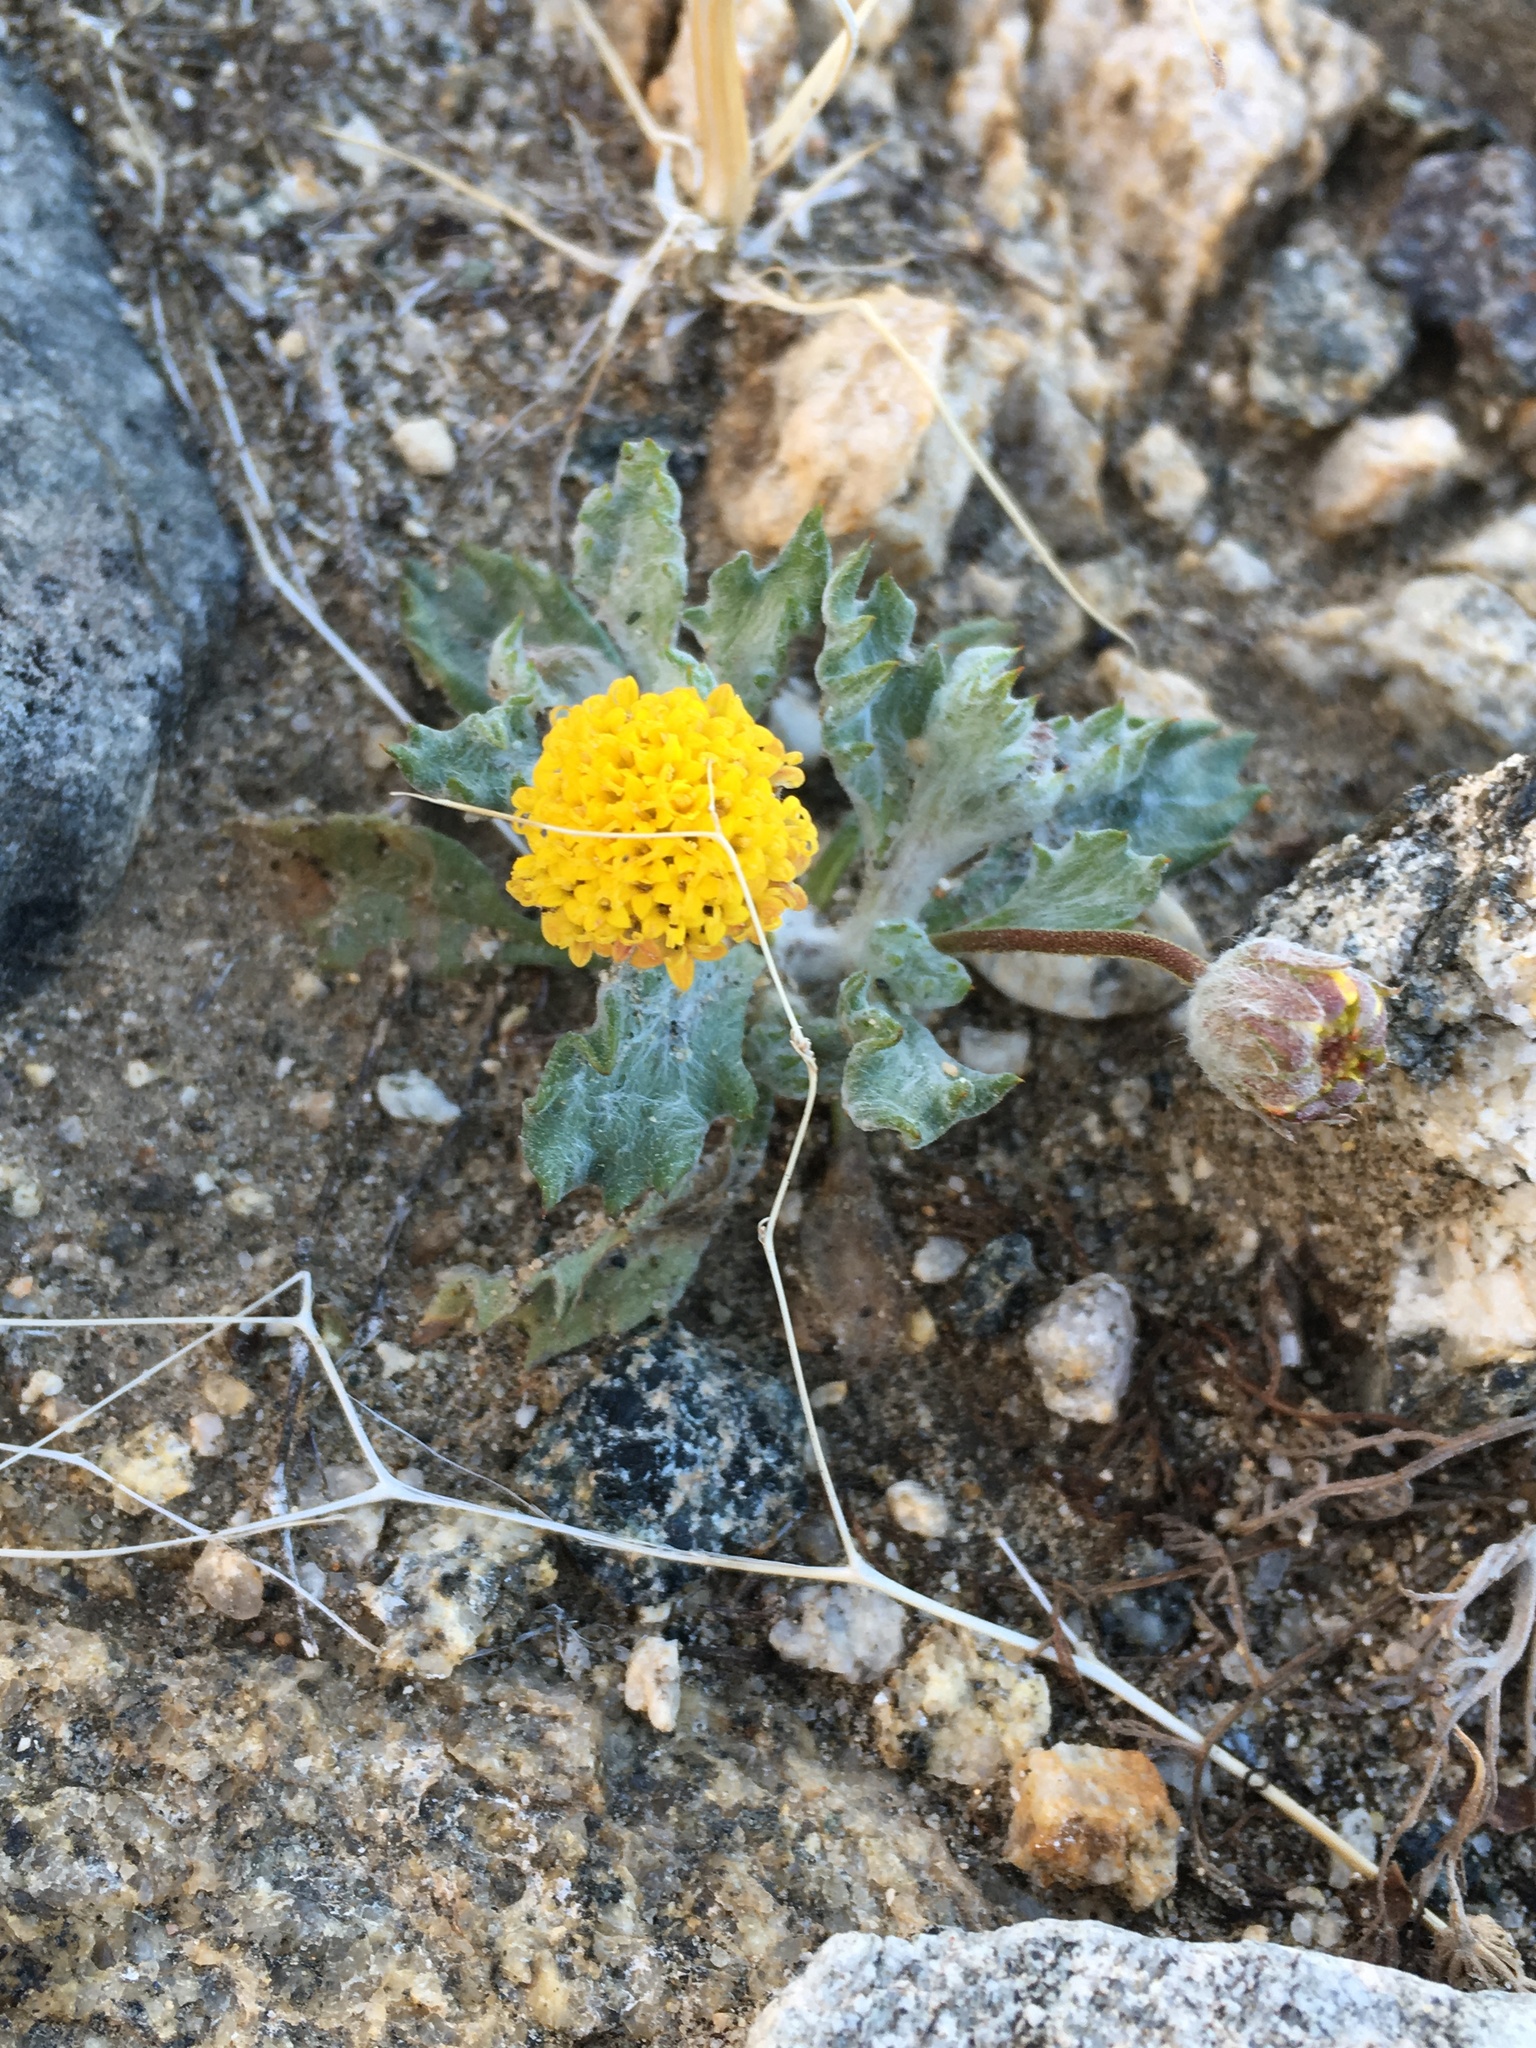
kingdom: Plantae
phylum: Tracheophyta
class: Magnoliopsida
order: Asterales
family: Asteraceae
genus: Trichoptilium
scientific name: Trichoptilium incisum
